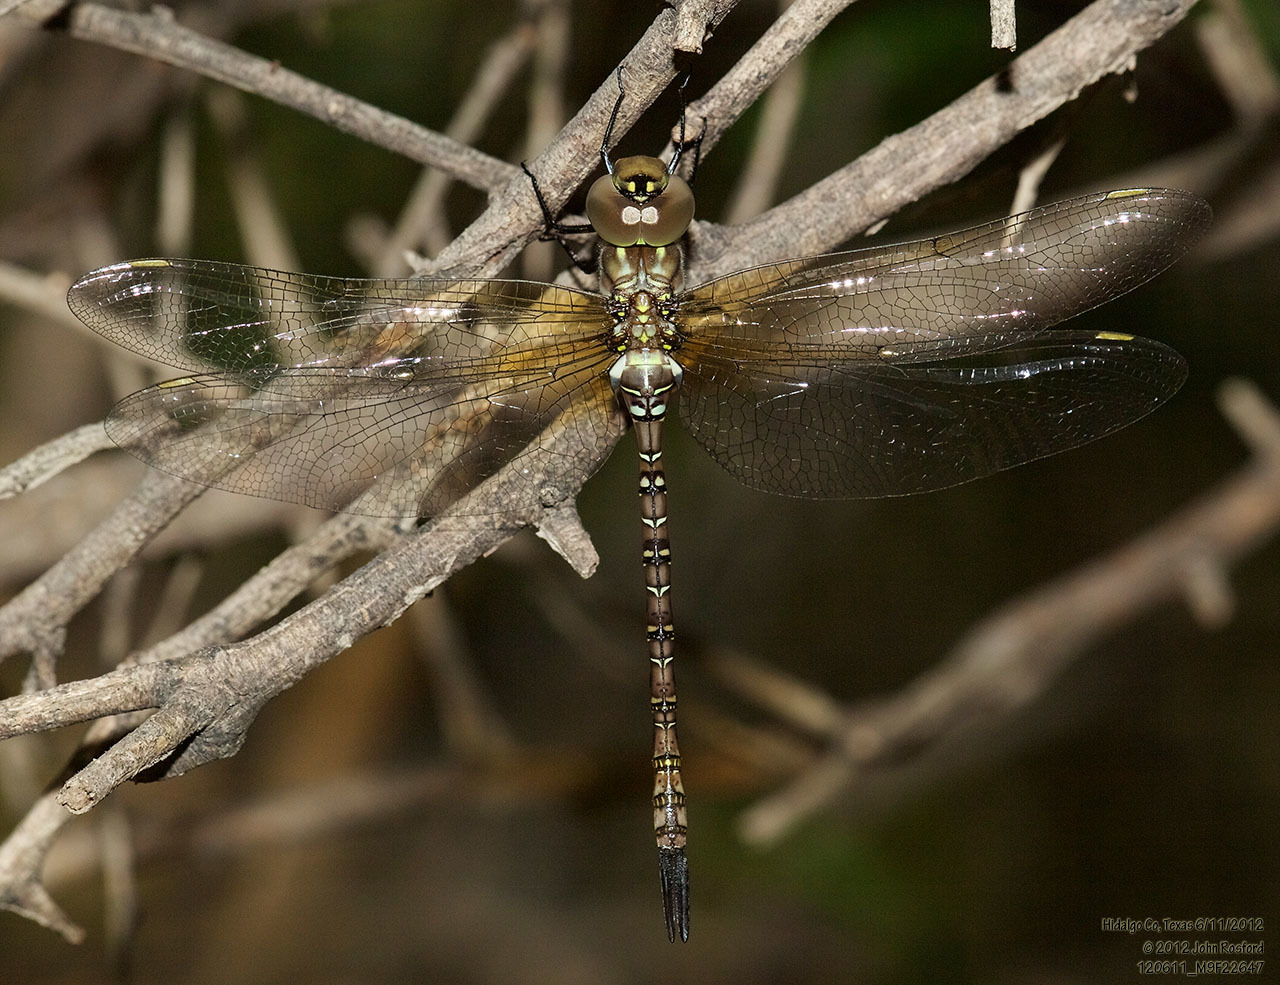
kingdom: Animalia
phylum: Arthropoda
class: Insecta
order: Odonata
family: Aeshnidae
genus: Rhionaeschna
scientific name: Rhionaeschna psilus
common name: Turquoise-tipped darner
